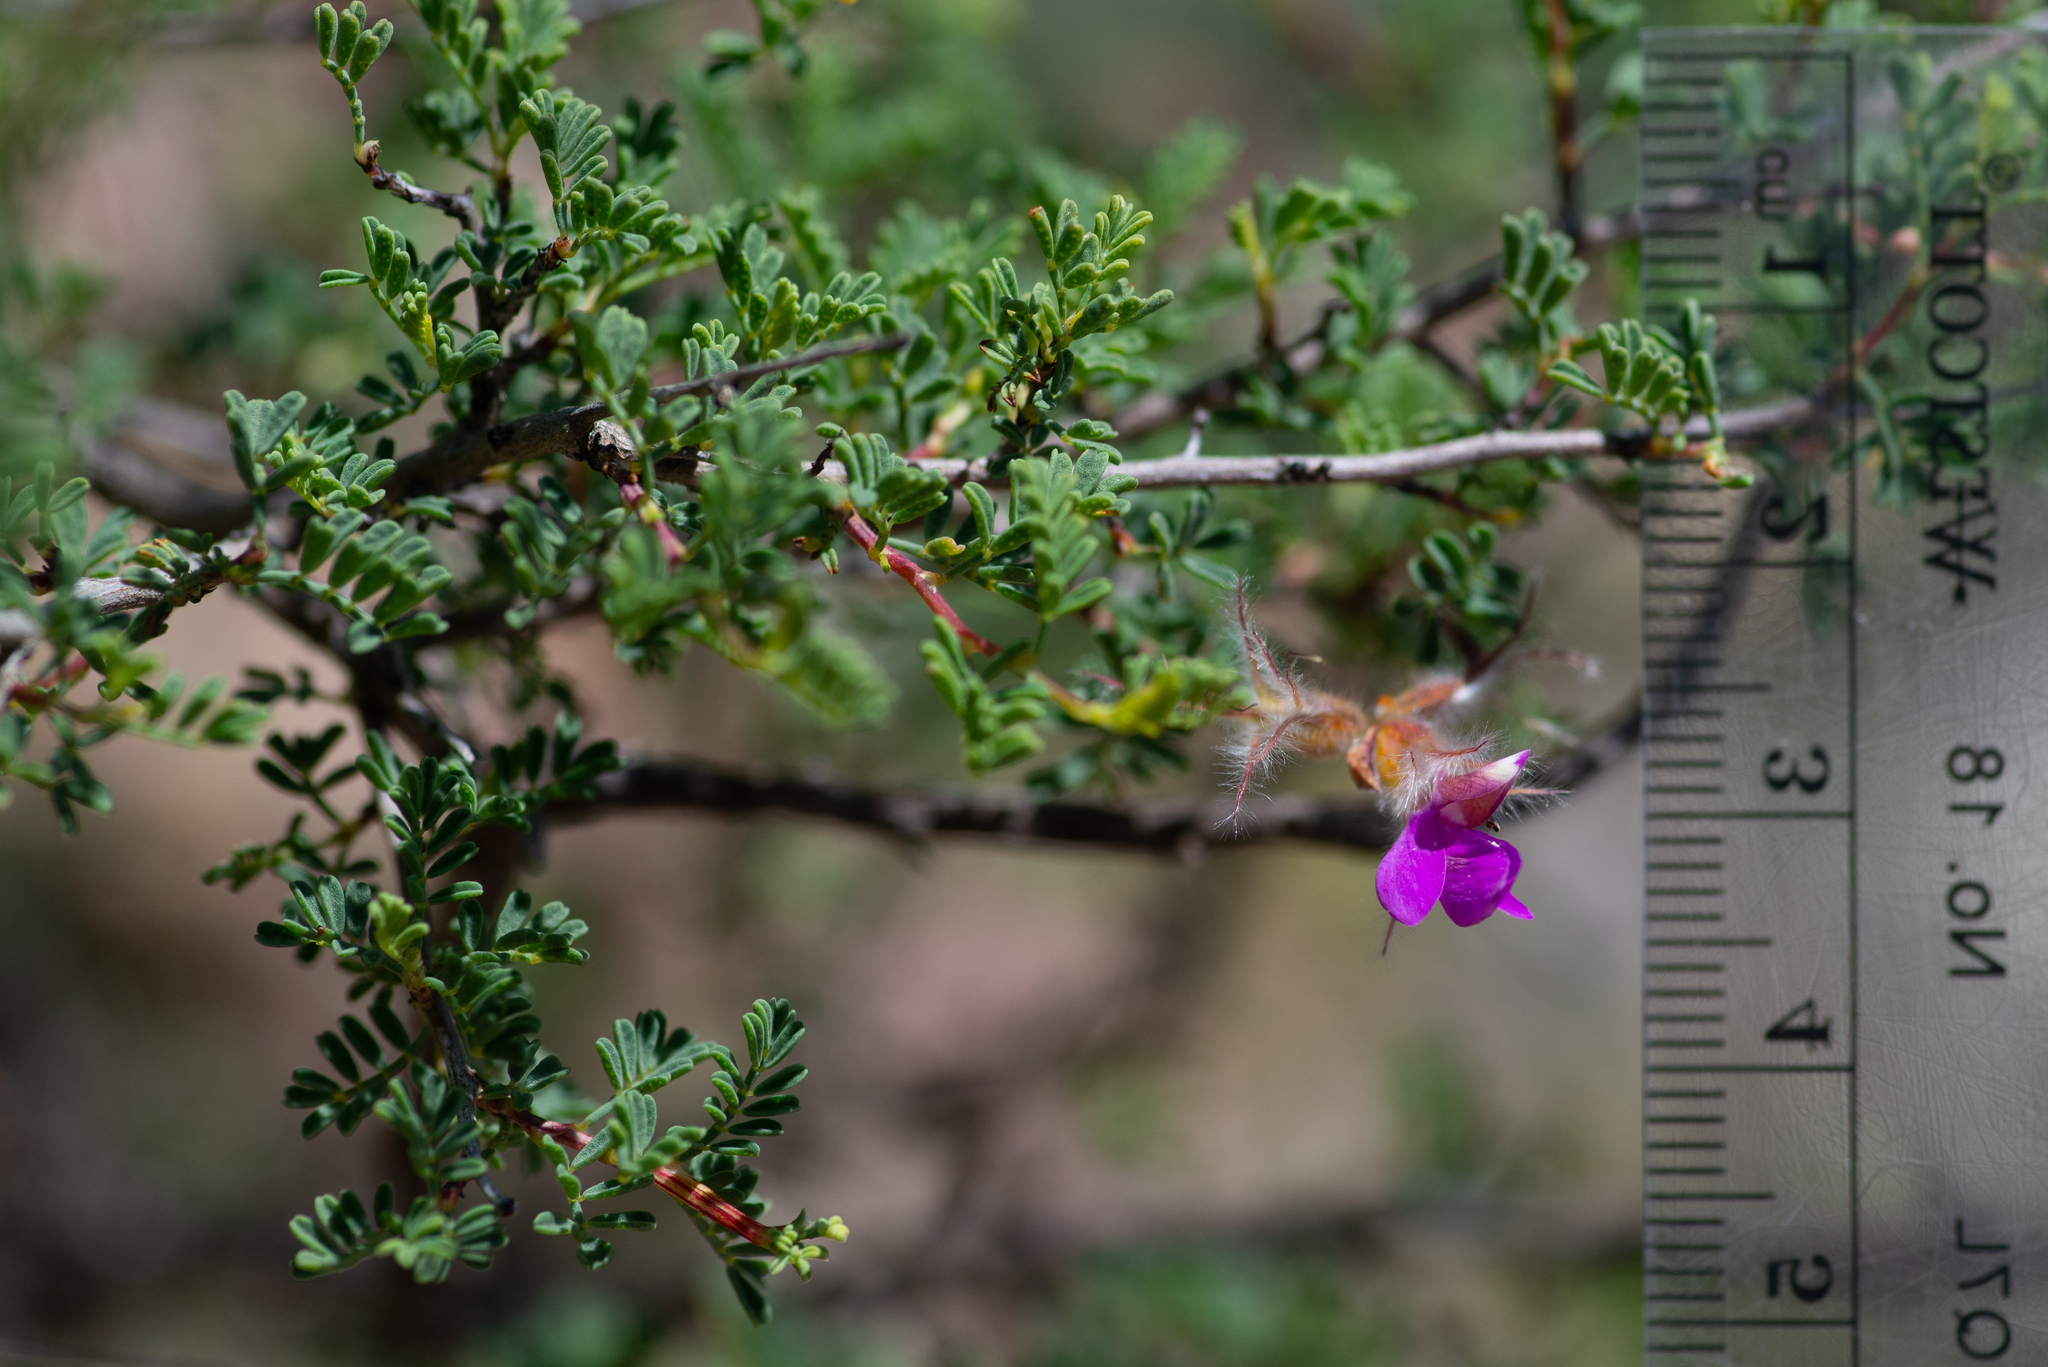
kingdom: Plantae
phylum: Tracheophyta
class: Magnoliopsida
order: Fabales
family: Fabaceae
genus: Dalea
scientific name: Dalea formosa
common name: Feather-plume dalea
